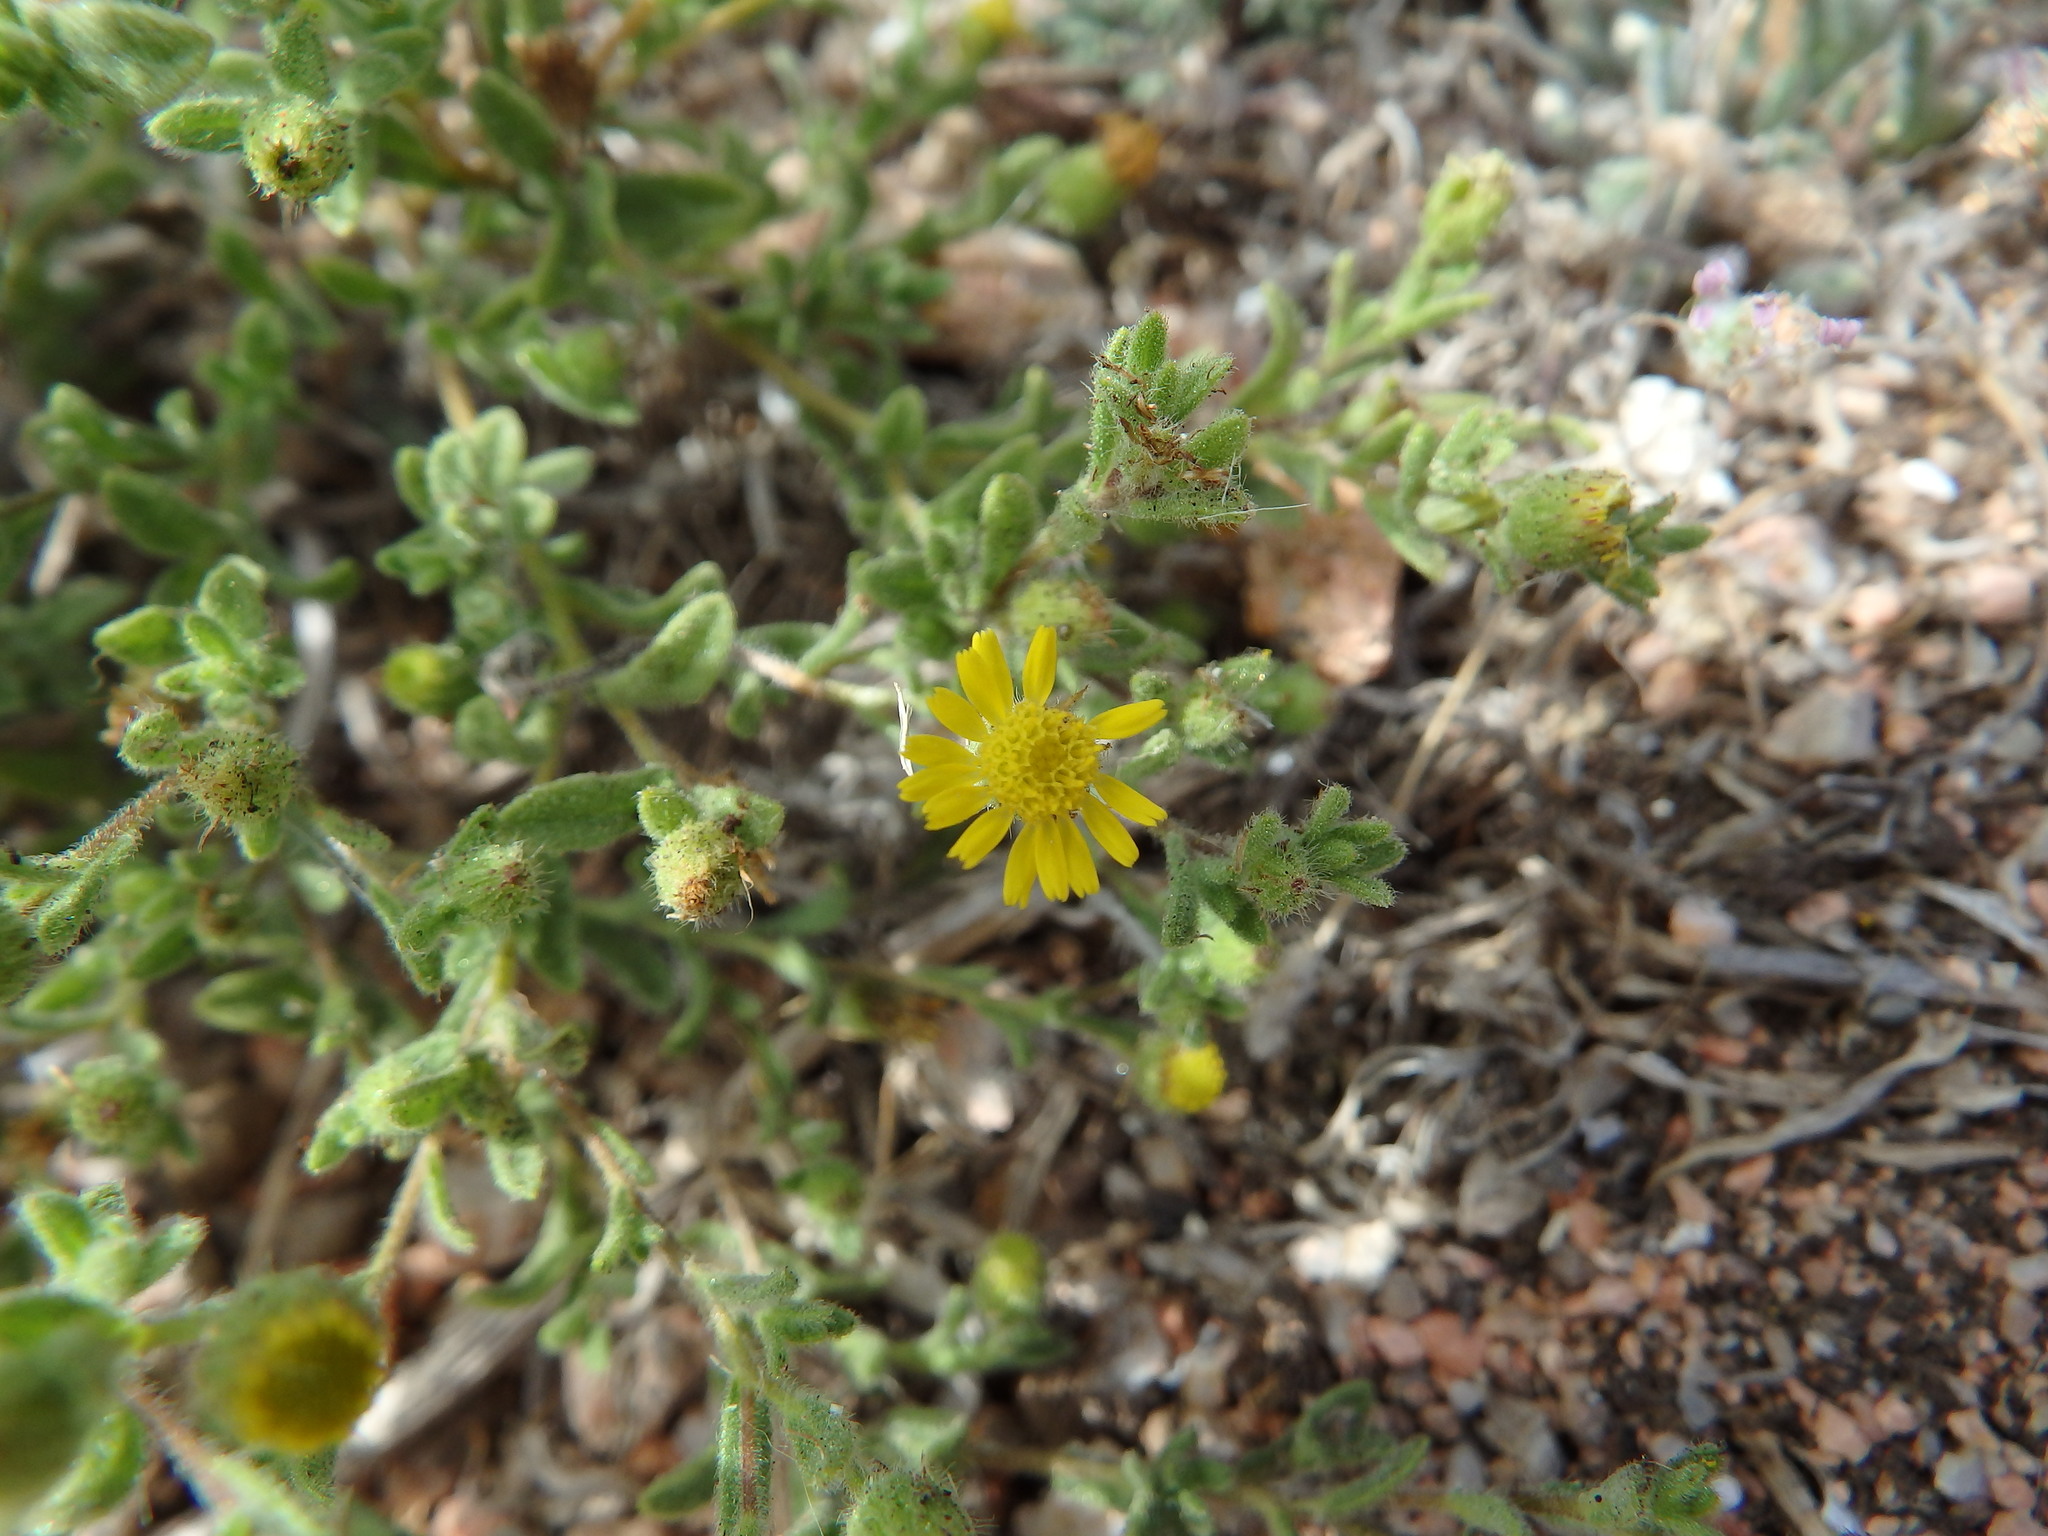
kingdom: Plantae
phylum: Tracheophyta
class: Magnoliopsida
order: Asterales
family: Asteraceae
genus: Pulicaria
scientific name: Pulicaria arabica
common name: Ladies' false fleabane
